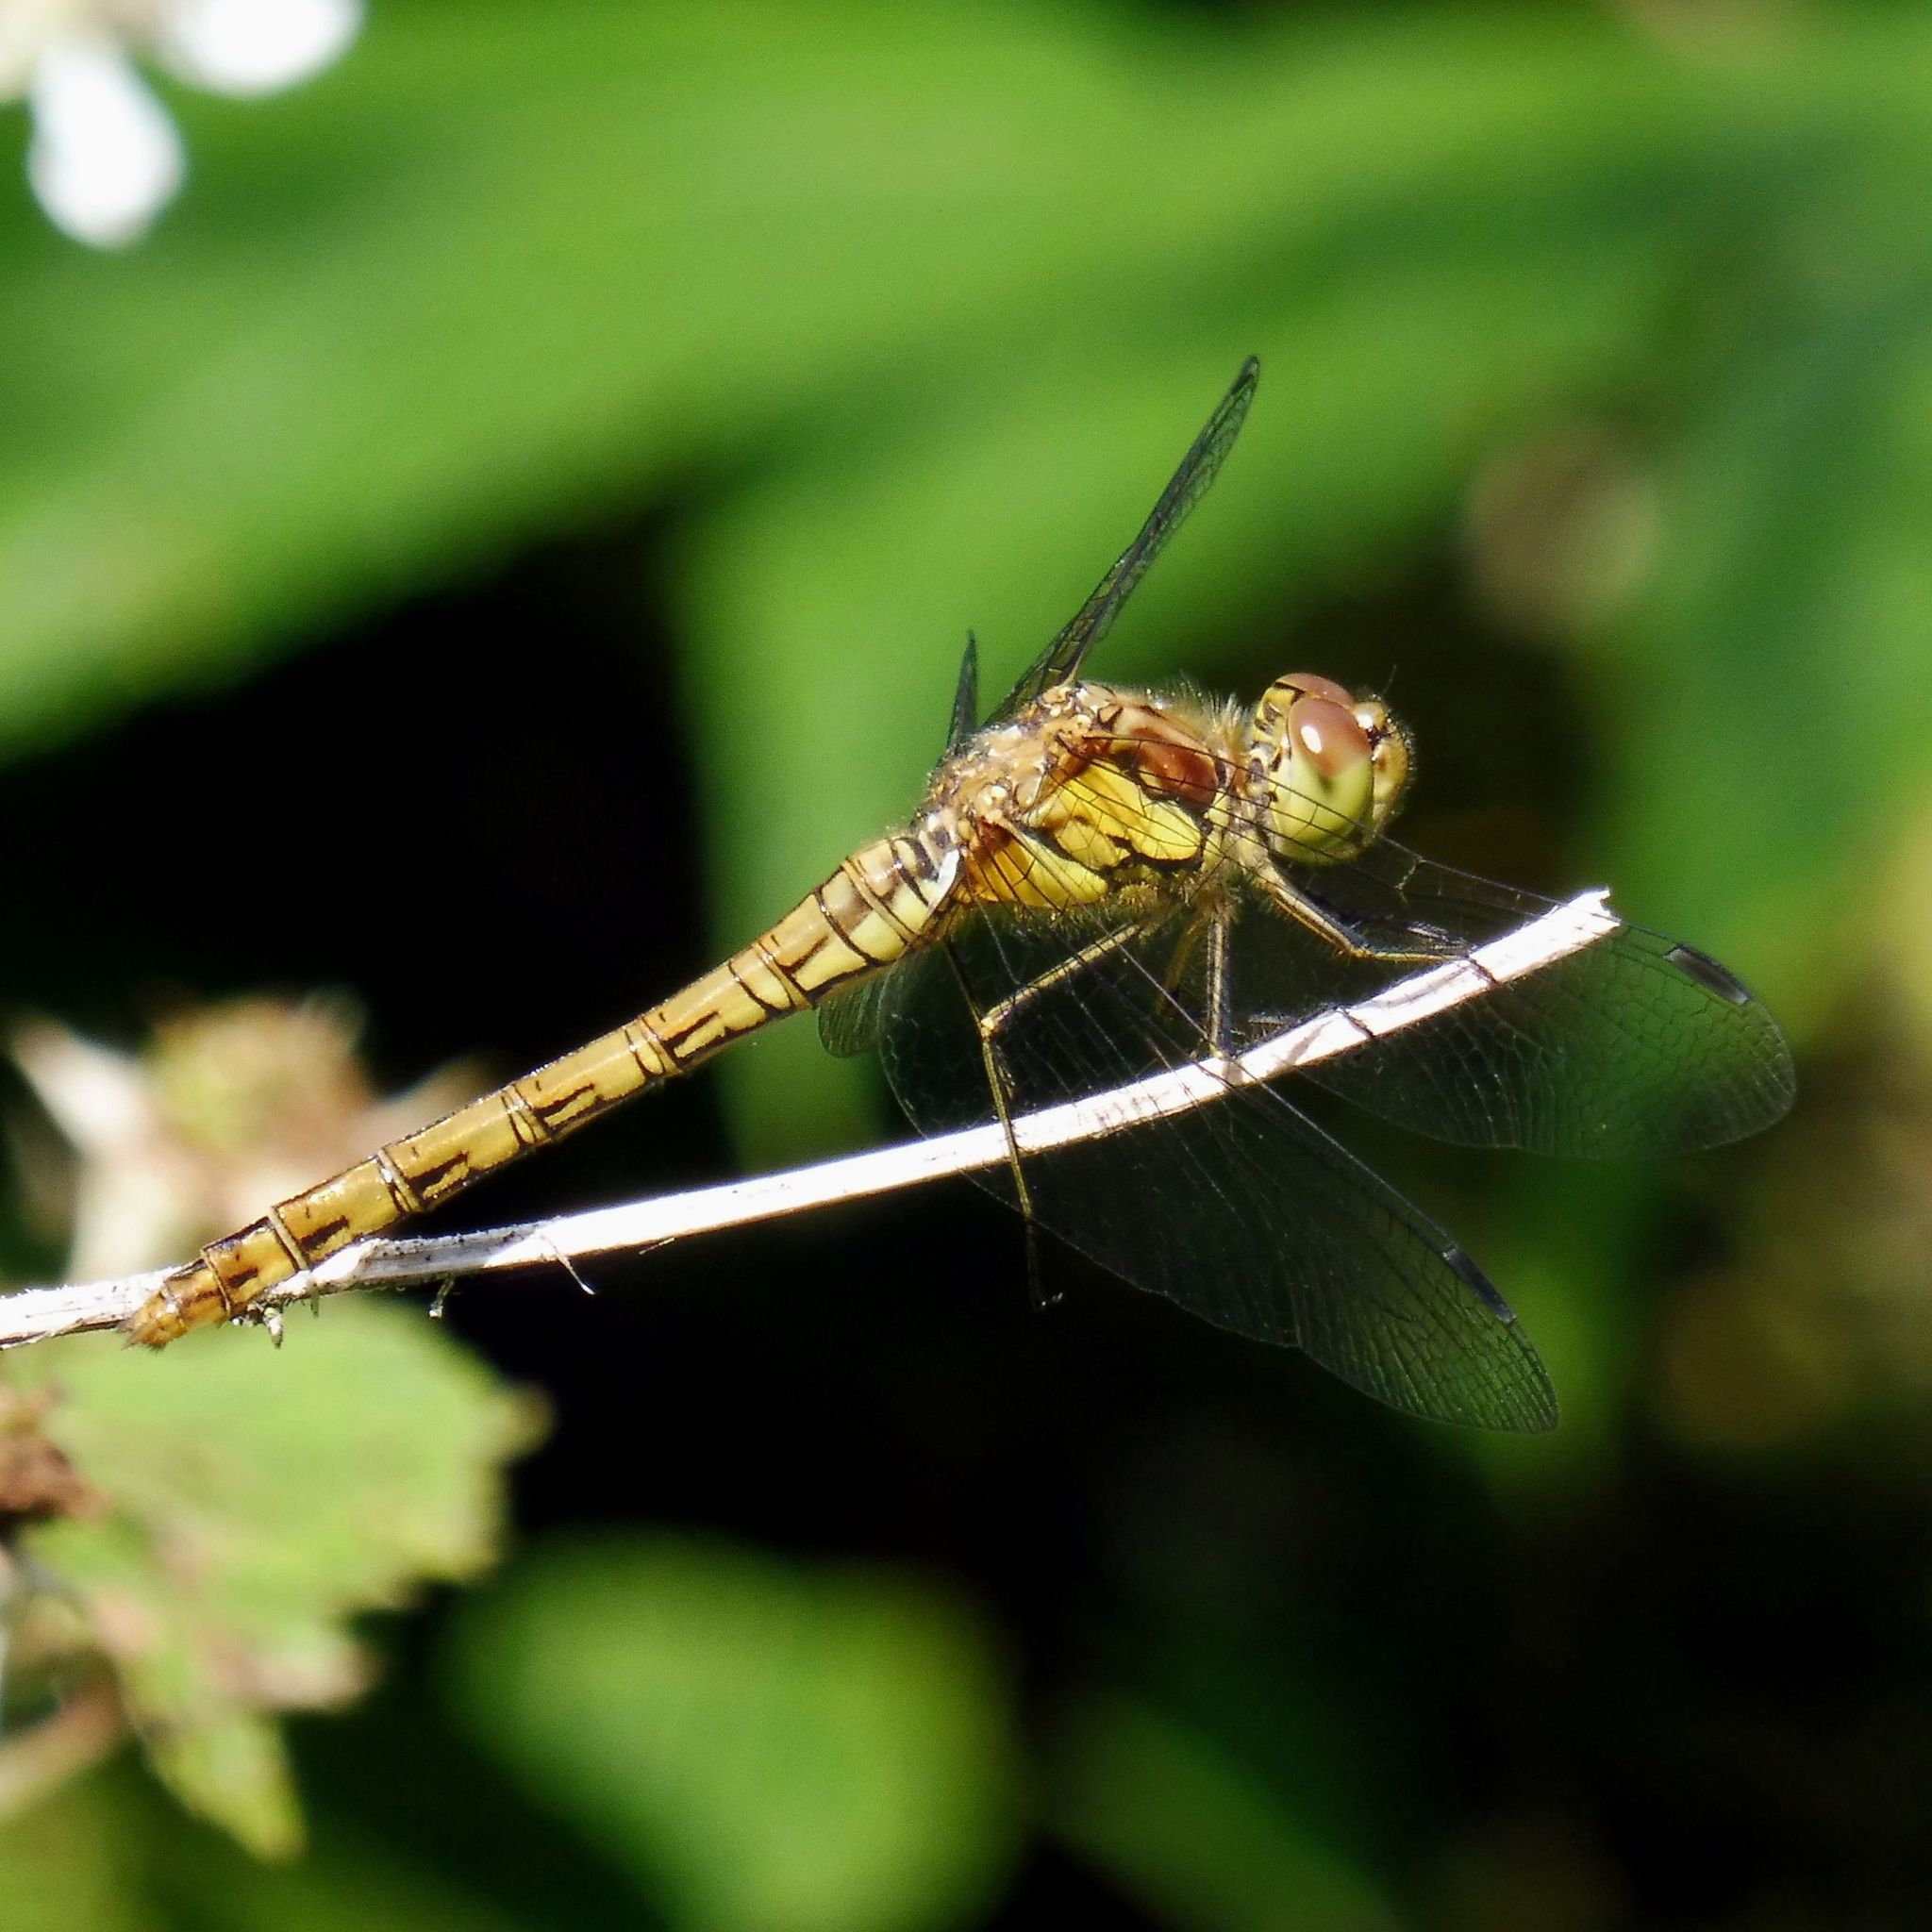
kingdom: Animalia
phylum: Arthropoda
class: Insecta
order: Odonata
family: Libellulidae
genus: Sympetrum
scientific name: Sympetrum striolatum
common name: Common darter
